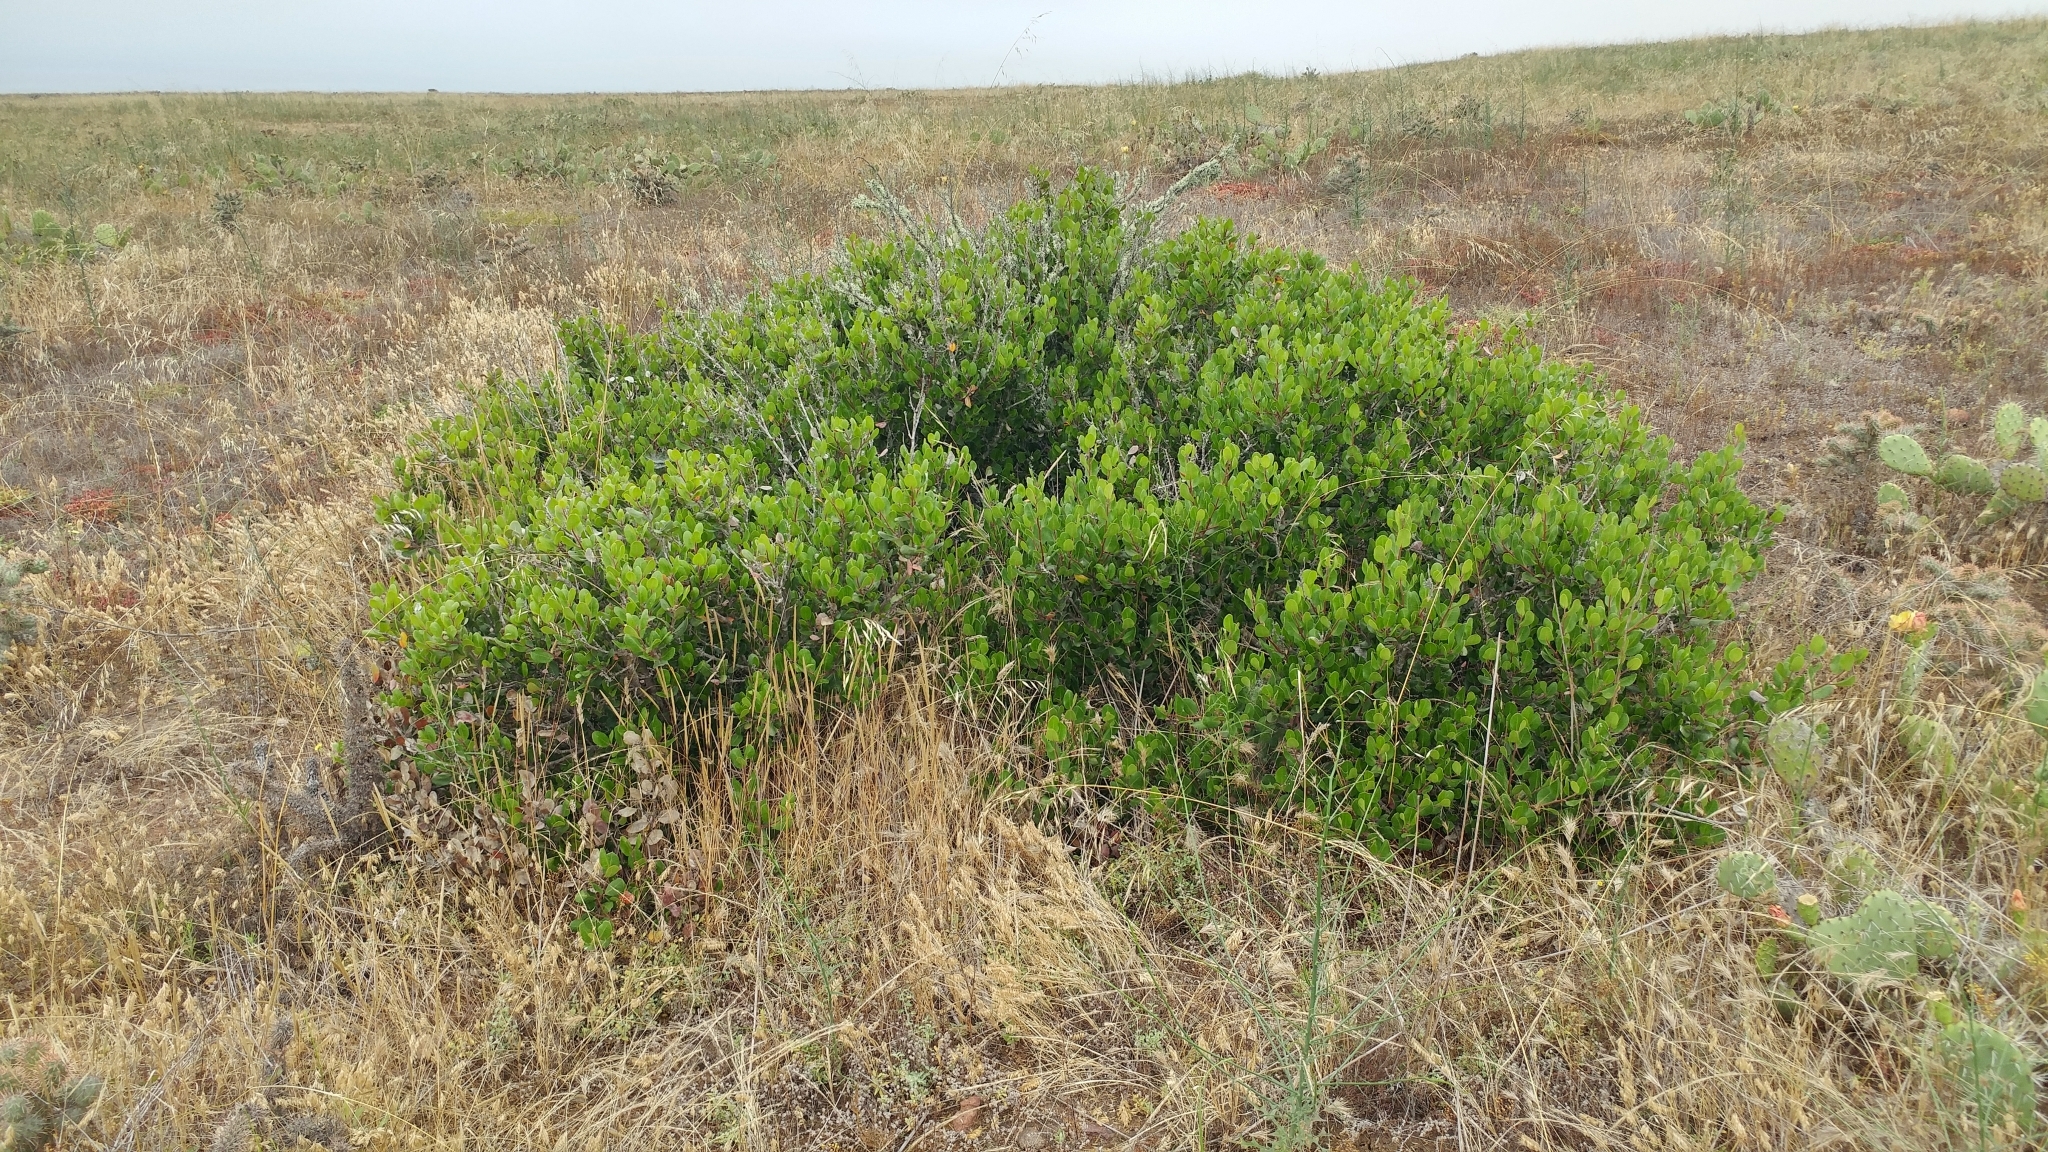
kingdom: Plantae
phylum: Tracheophyta
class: Magnoliopsida
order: Sapindales
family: Anacardiaceae
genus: Rhus
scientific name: Rhus integrifolia
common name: Lemonade sumac
